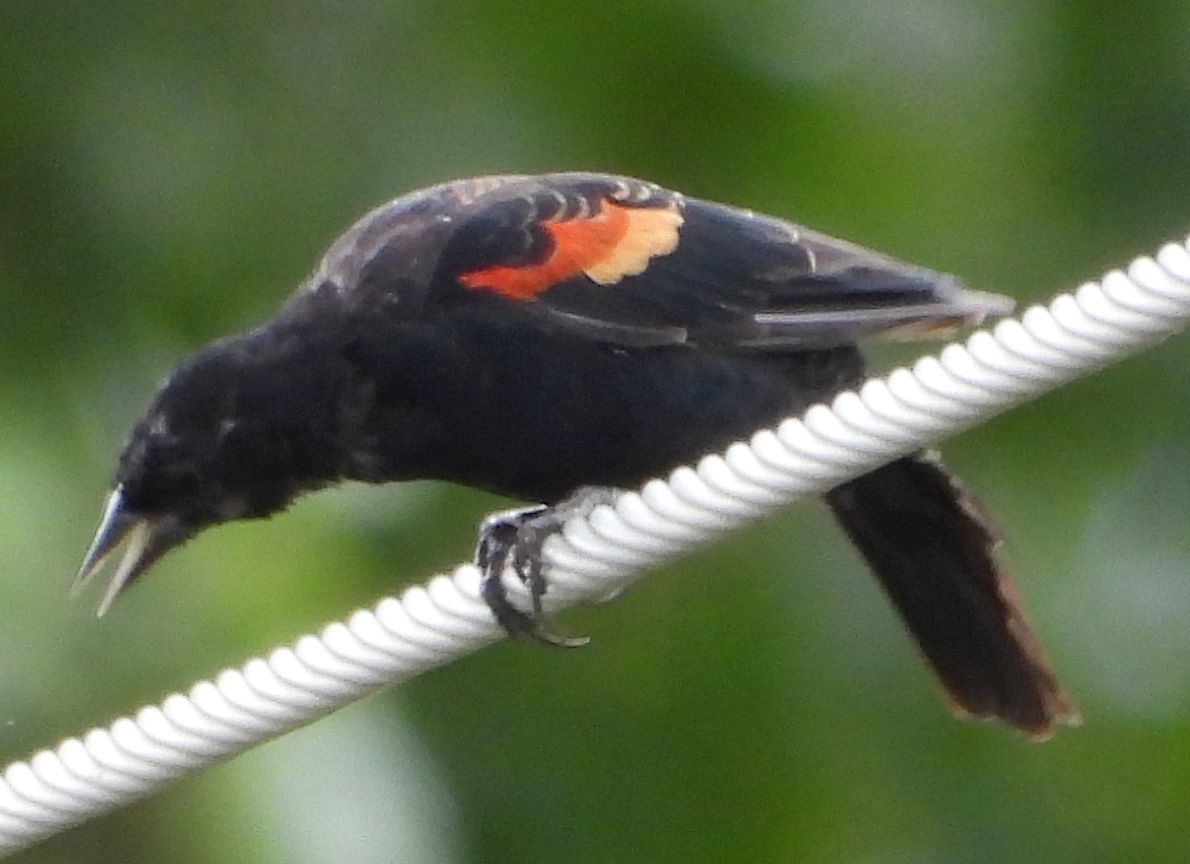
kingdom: Animalia
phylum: Chordata
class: Aves
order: Passeriformes
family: Icteridae
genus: Agelaius
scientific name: Agelaius phoeniceus
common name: Red-winged blackbird
